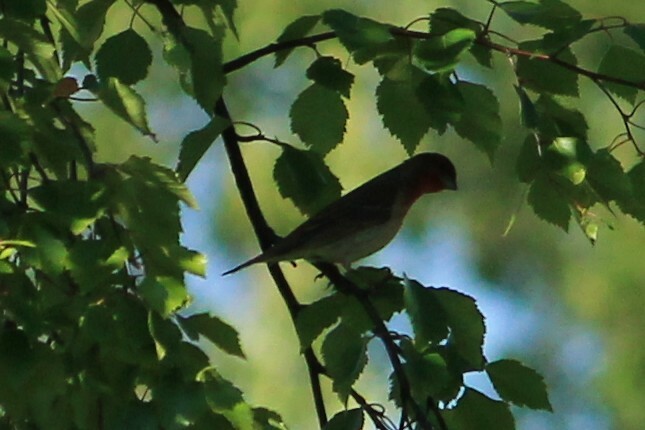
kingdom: Animalia
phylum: Chordata
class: Aves
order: Passeriformes
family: Fringillidae
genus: Carpodacus
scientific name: Carpodacus erythrinus
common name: Common rosefinch
